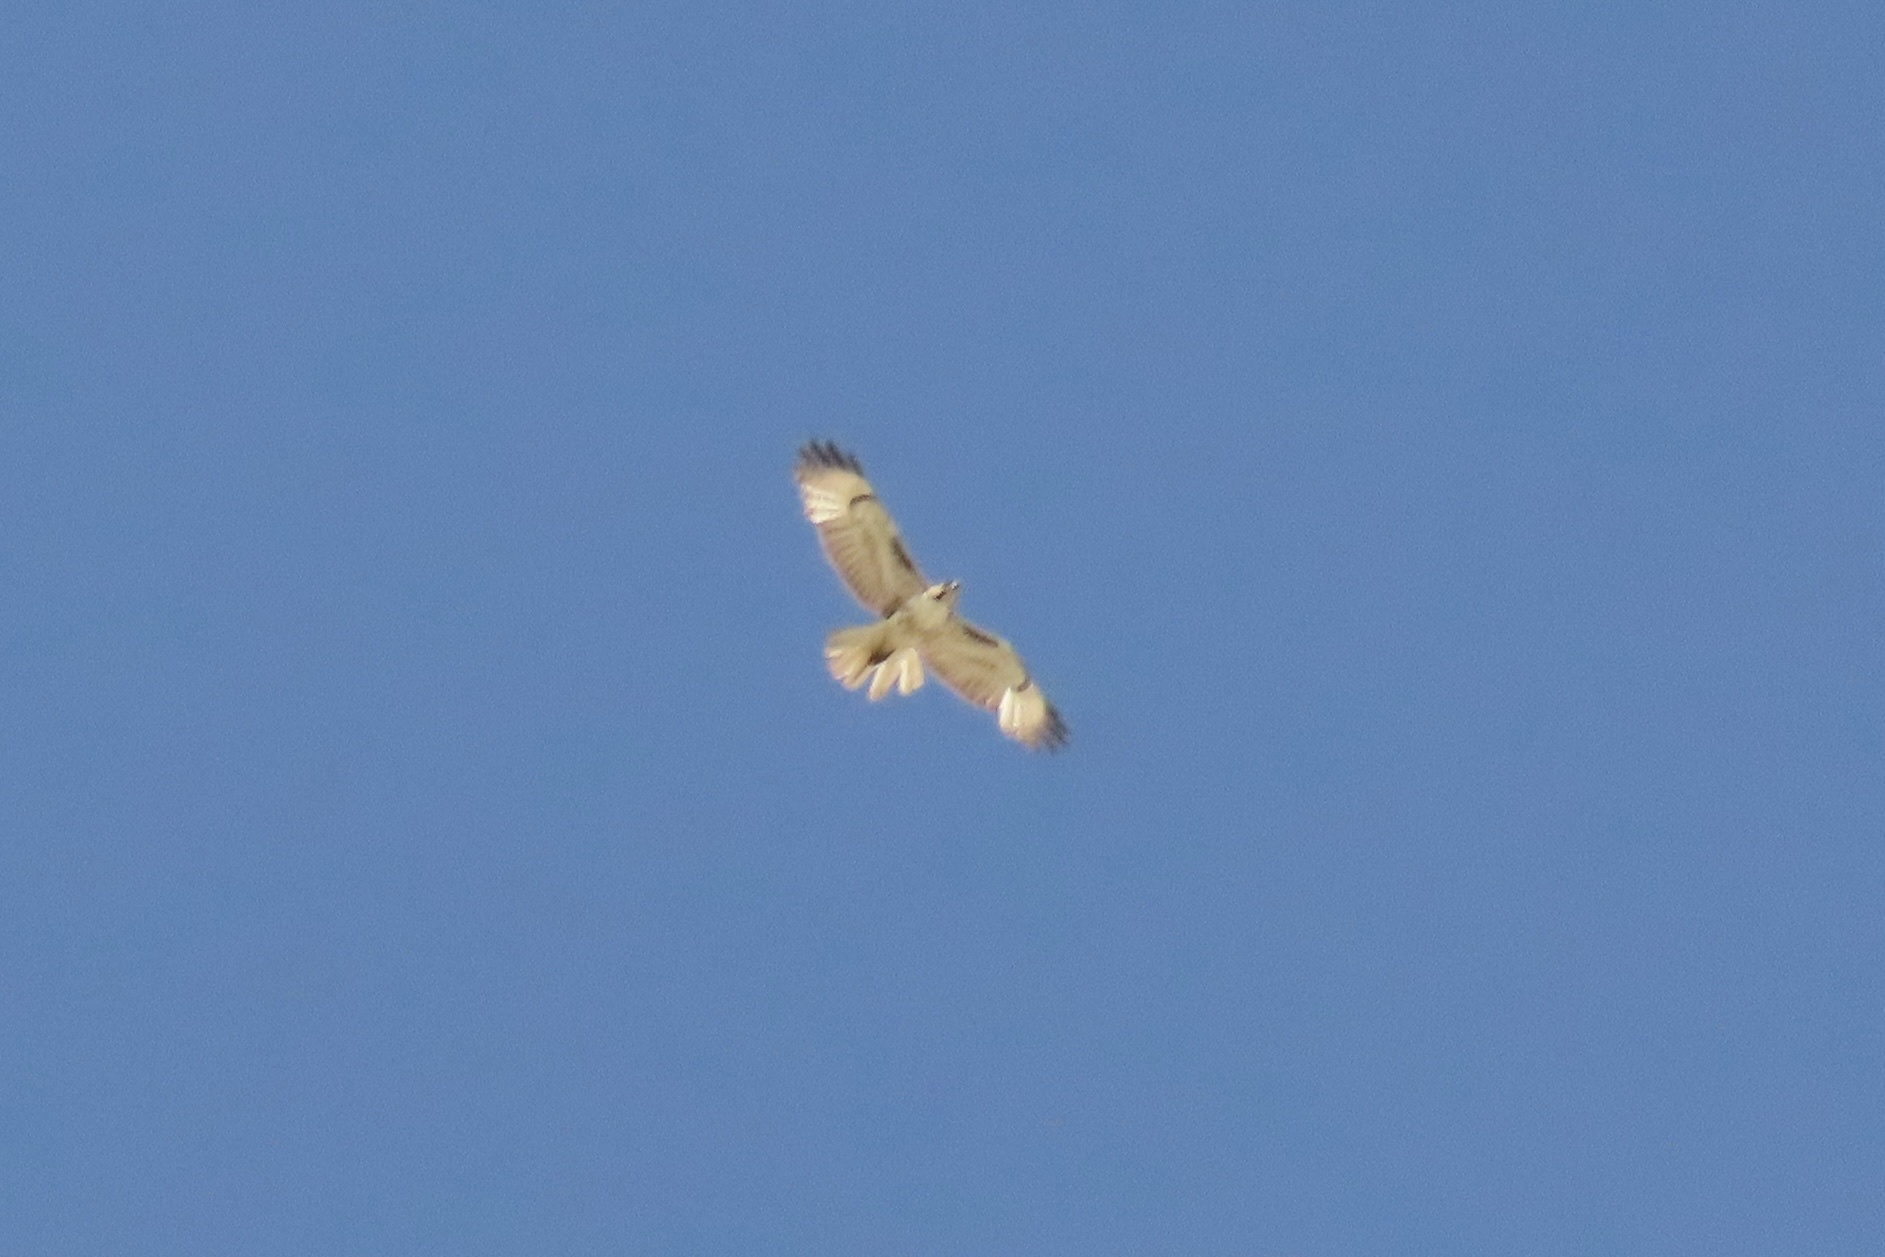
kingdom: Animalia
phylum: Chordata
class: Aves
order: Accipitriformes
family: Accipitridae
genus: Buteo
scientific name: Buteo jamaicensis
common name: Red-tailed hawk
